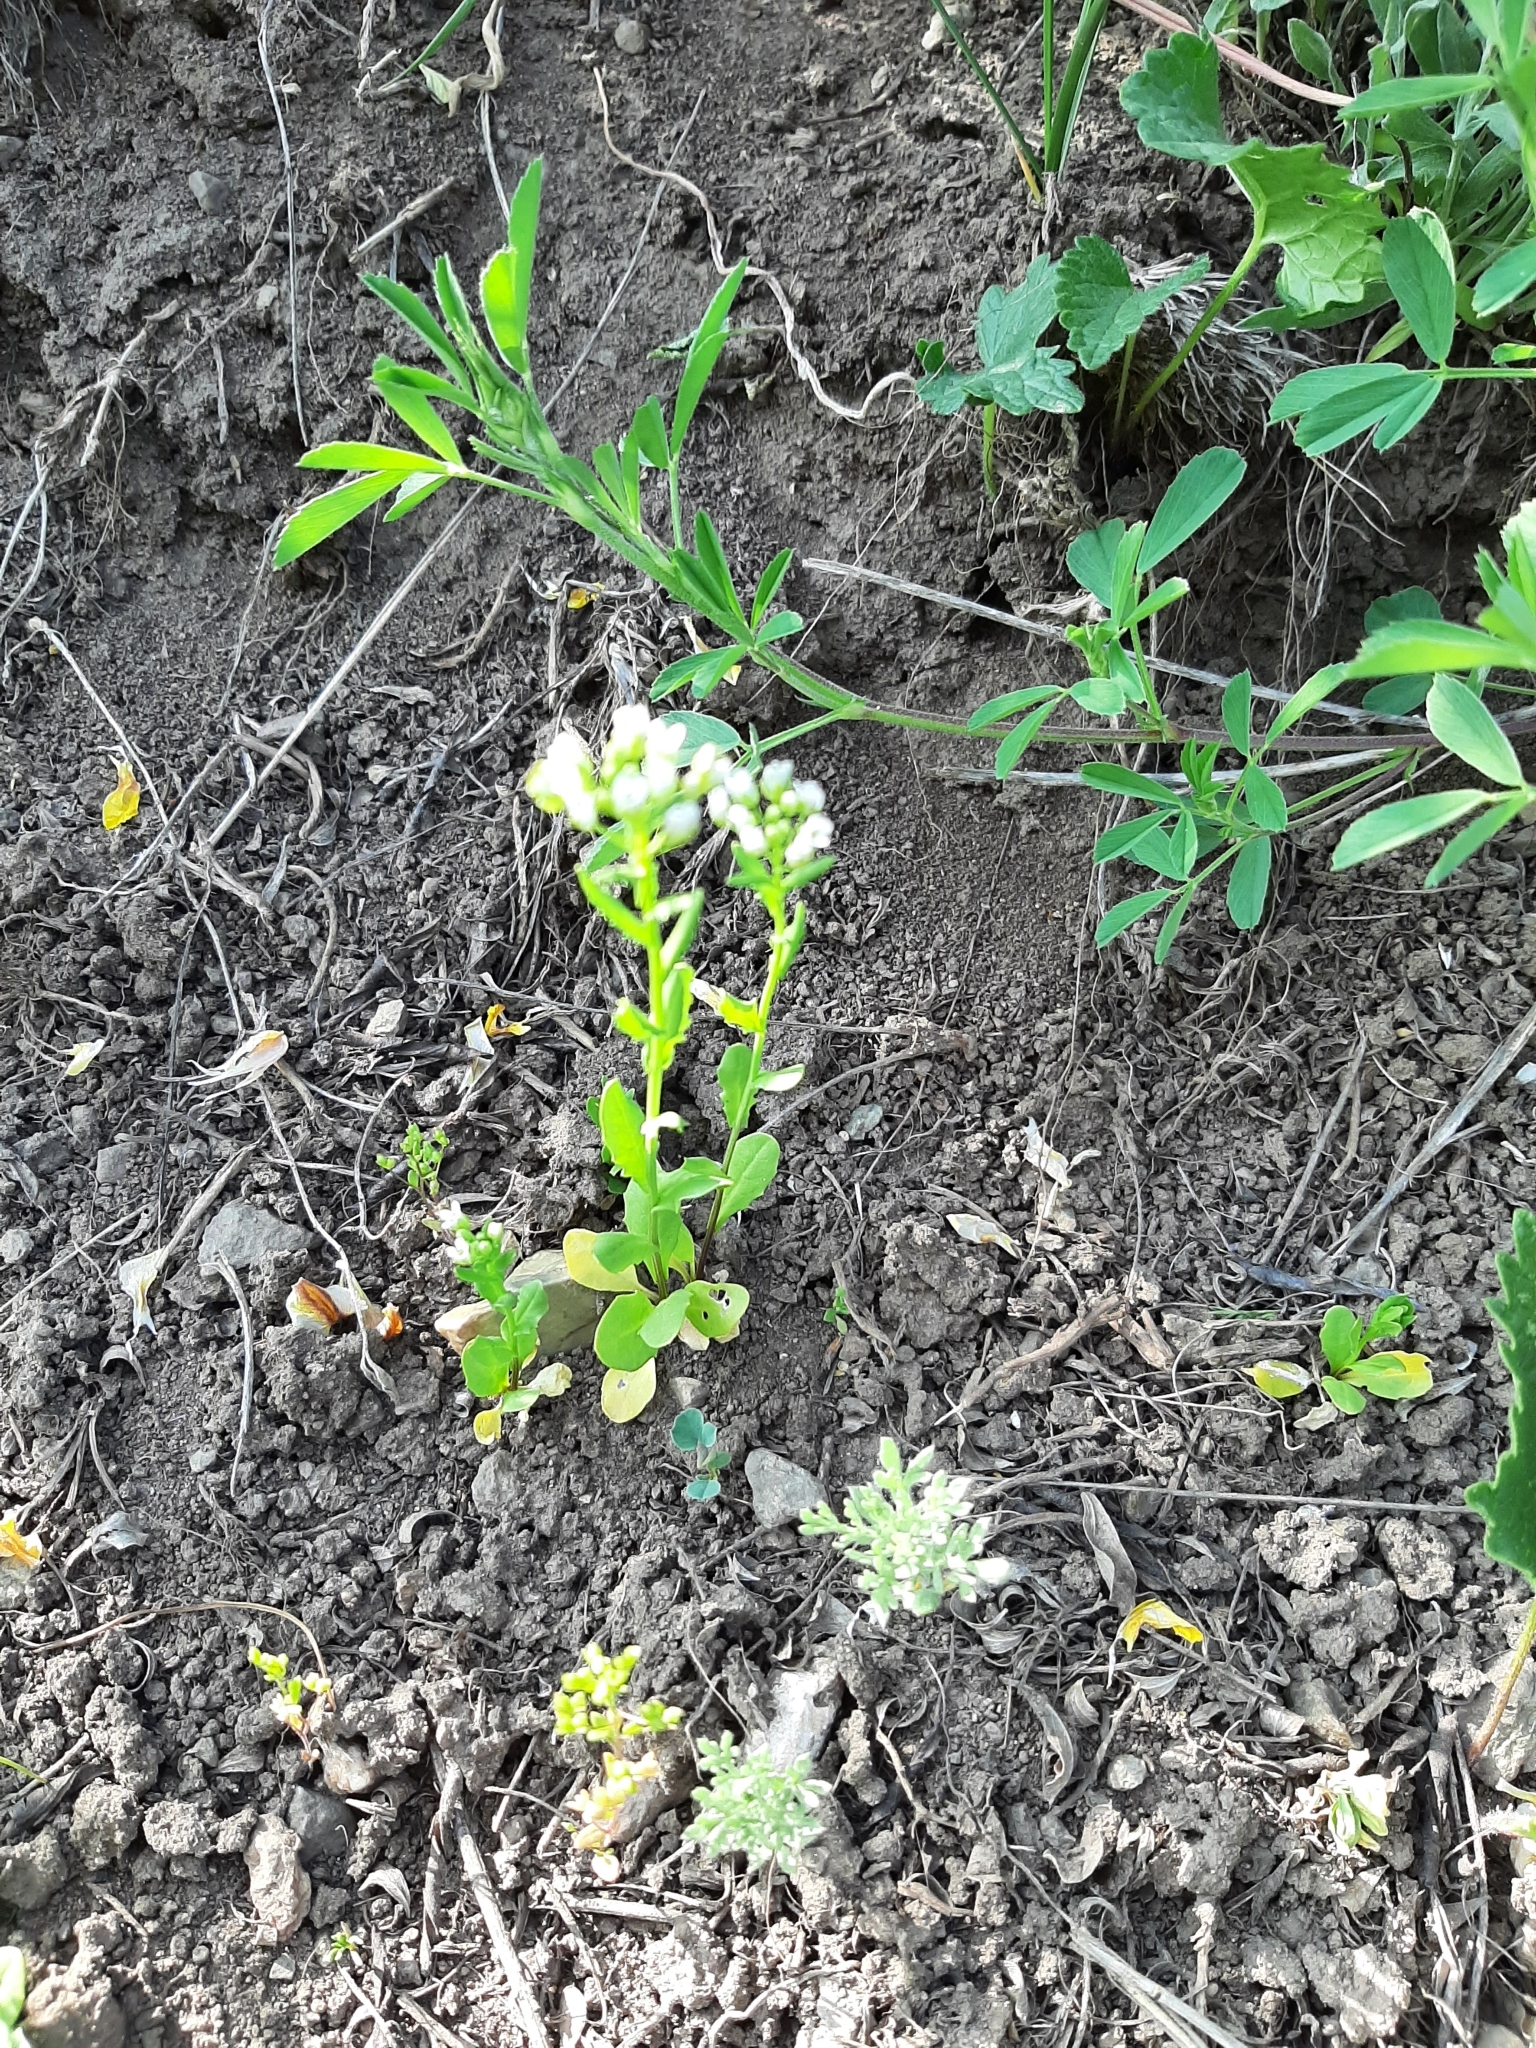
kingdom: Plantae
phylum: Tracheophyta
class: Magnoliopsida
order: Brassicales
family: Brassicaceae
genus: Thlaspi
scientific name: Thlaspi arvense
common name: Field pennycress
